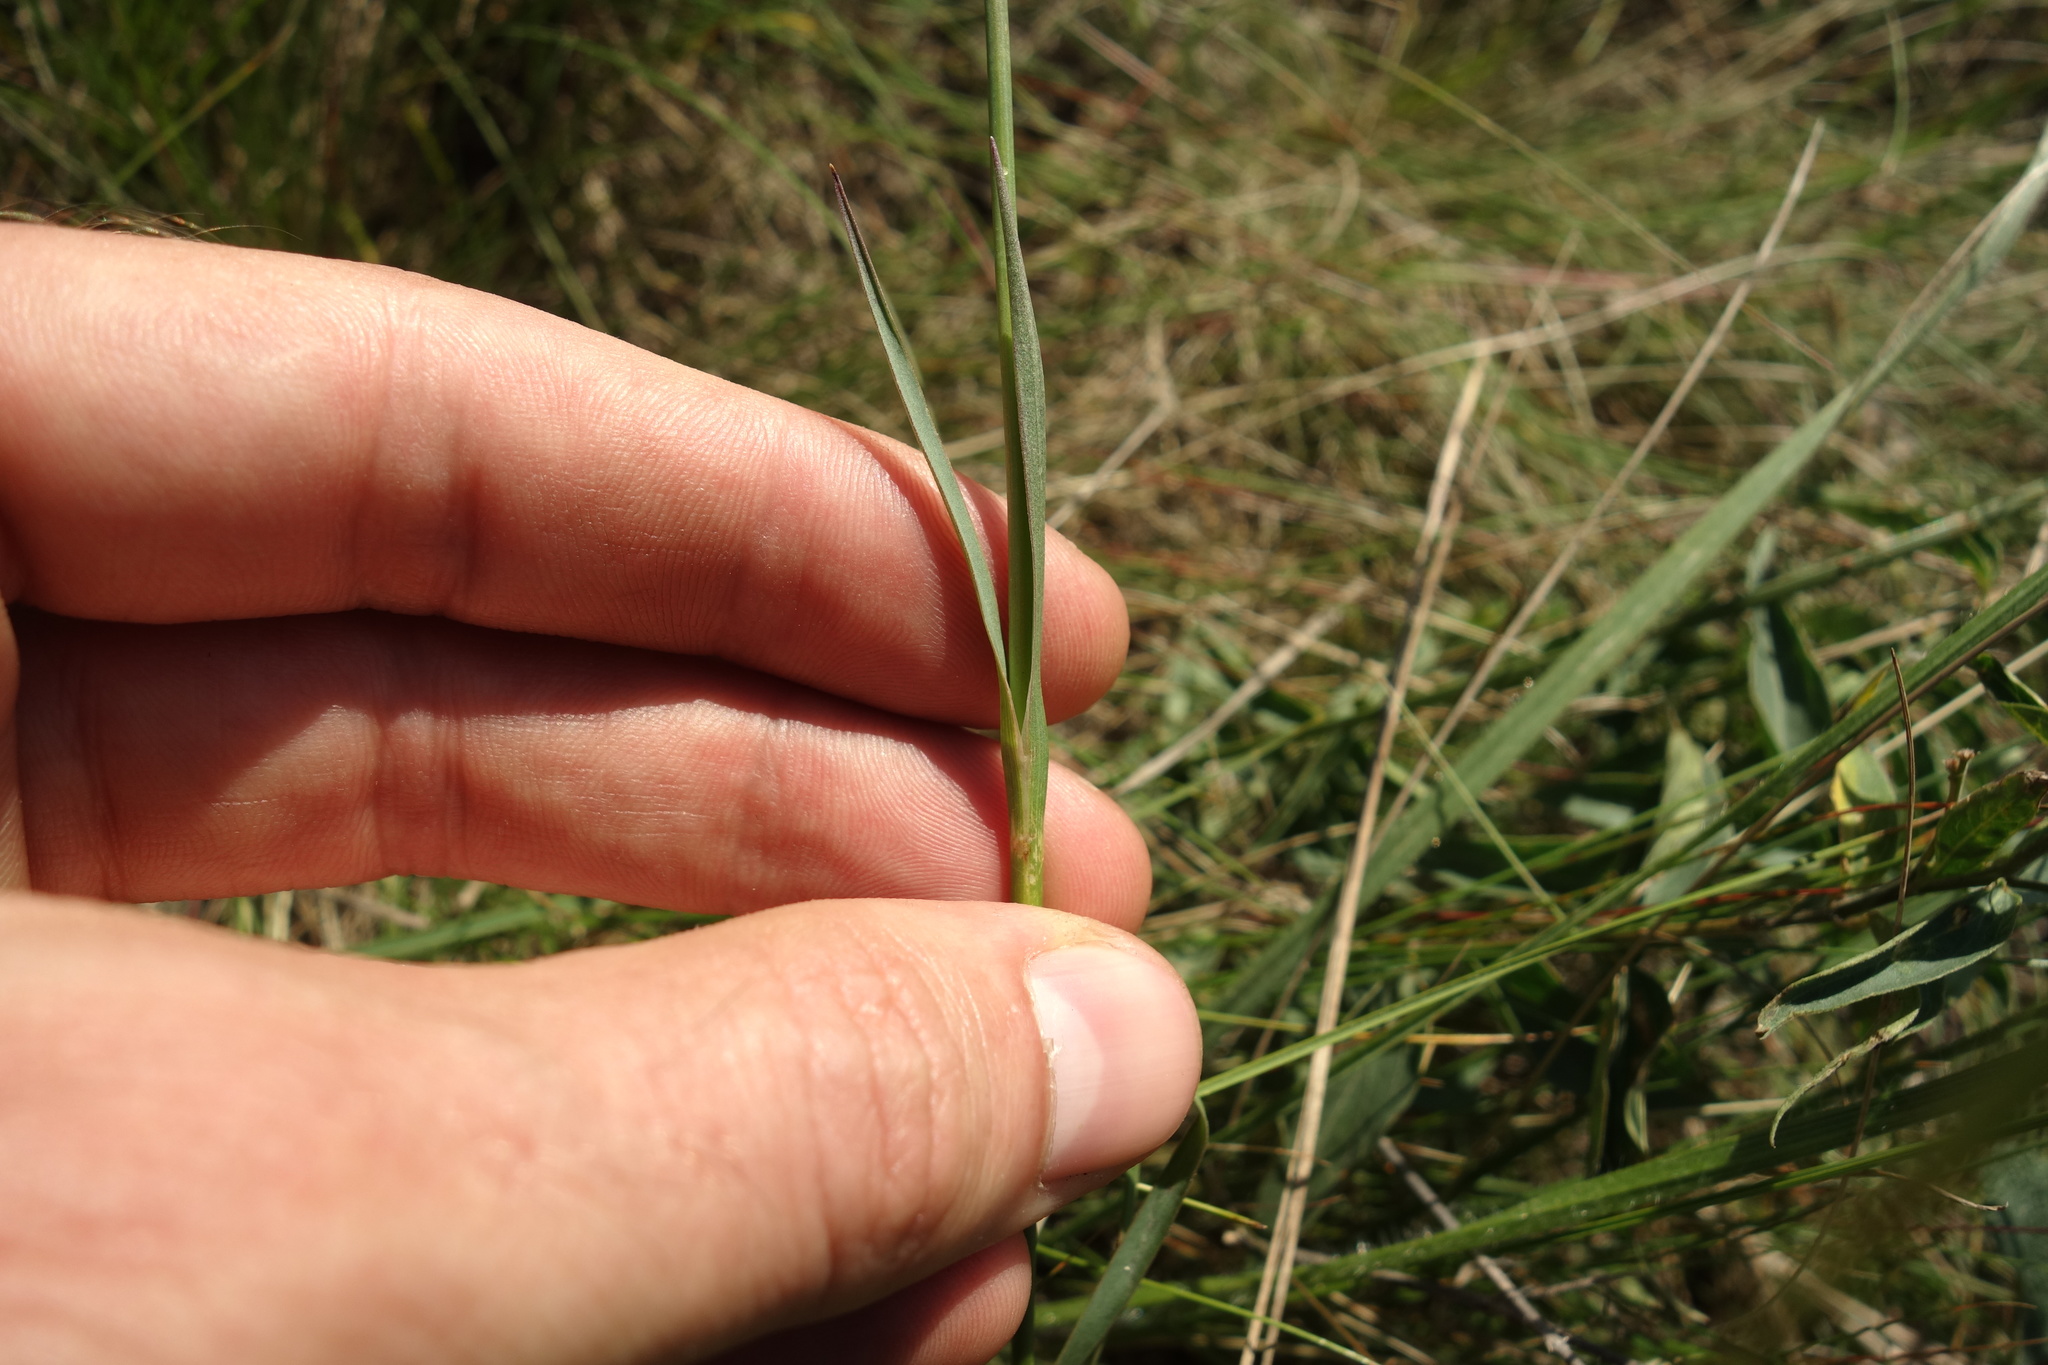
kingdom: Plantae
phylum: Tracheophyta
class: Magnoliopsida
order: Caryophyllales
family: Caryophyllaceae
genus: Dianthus
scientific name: Dianthus capitatus
